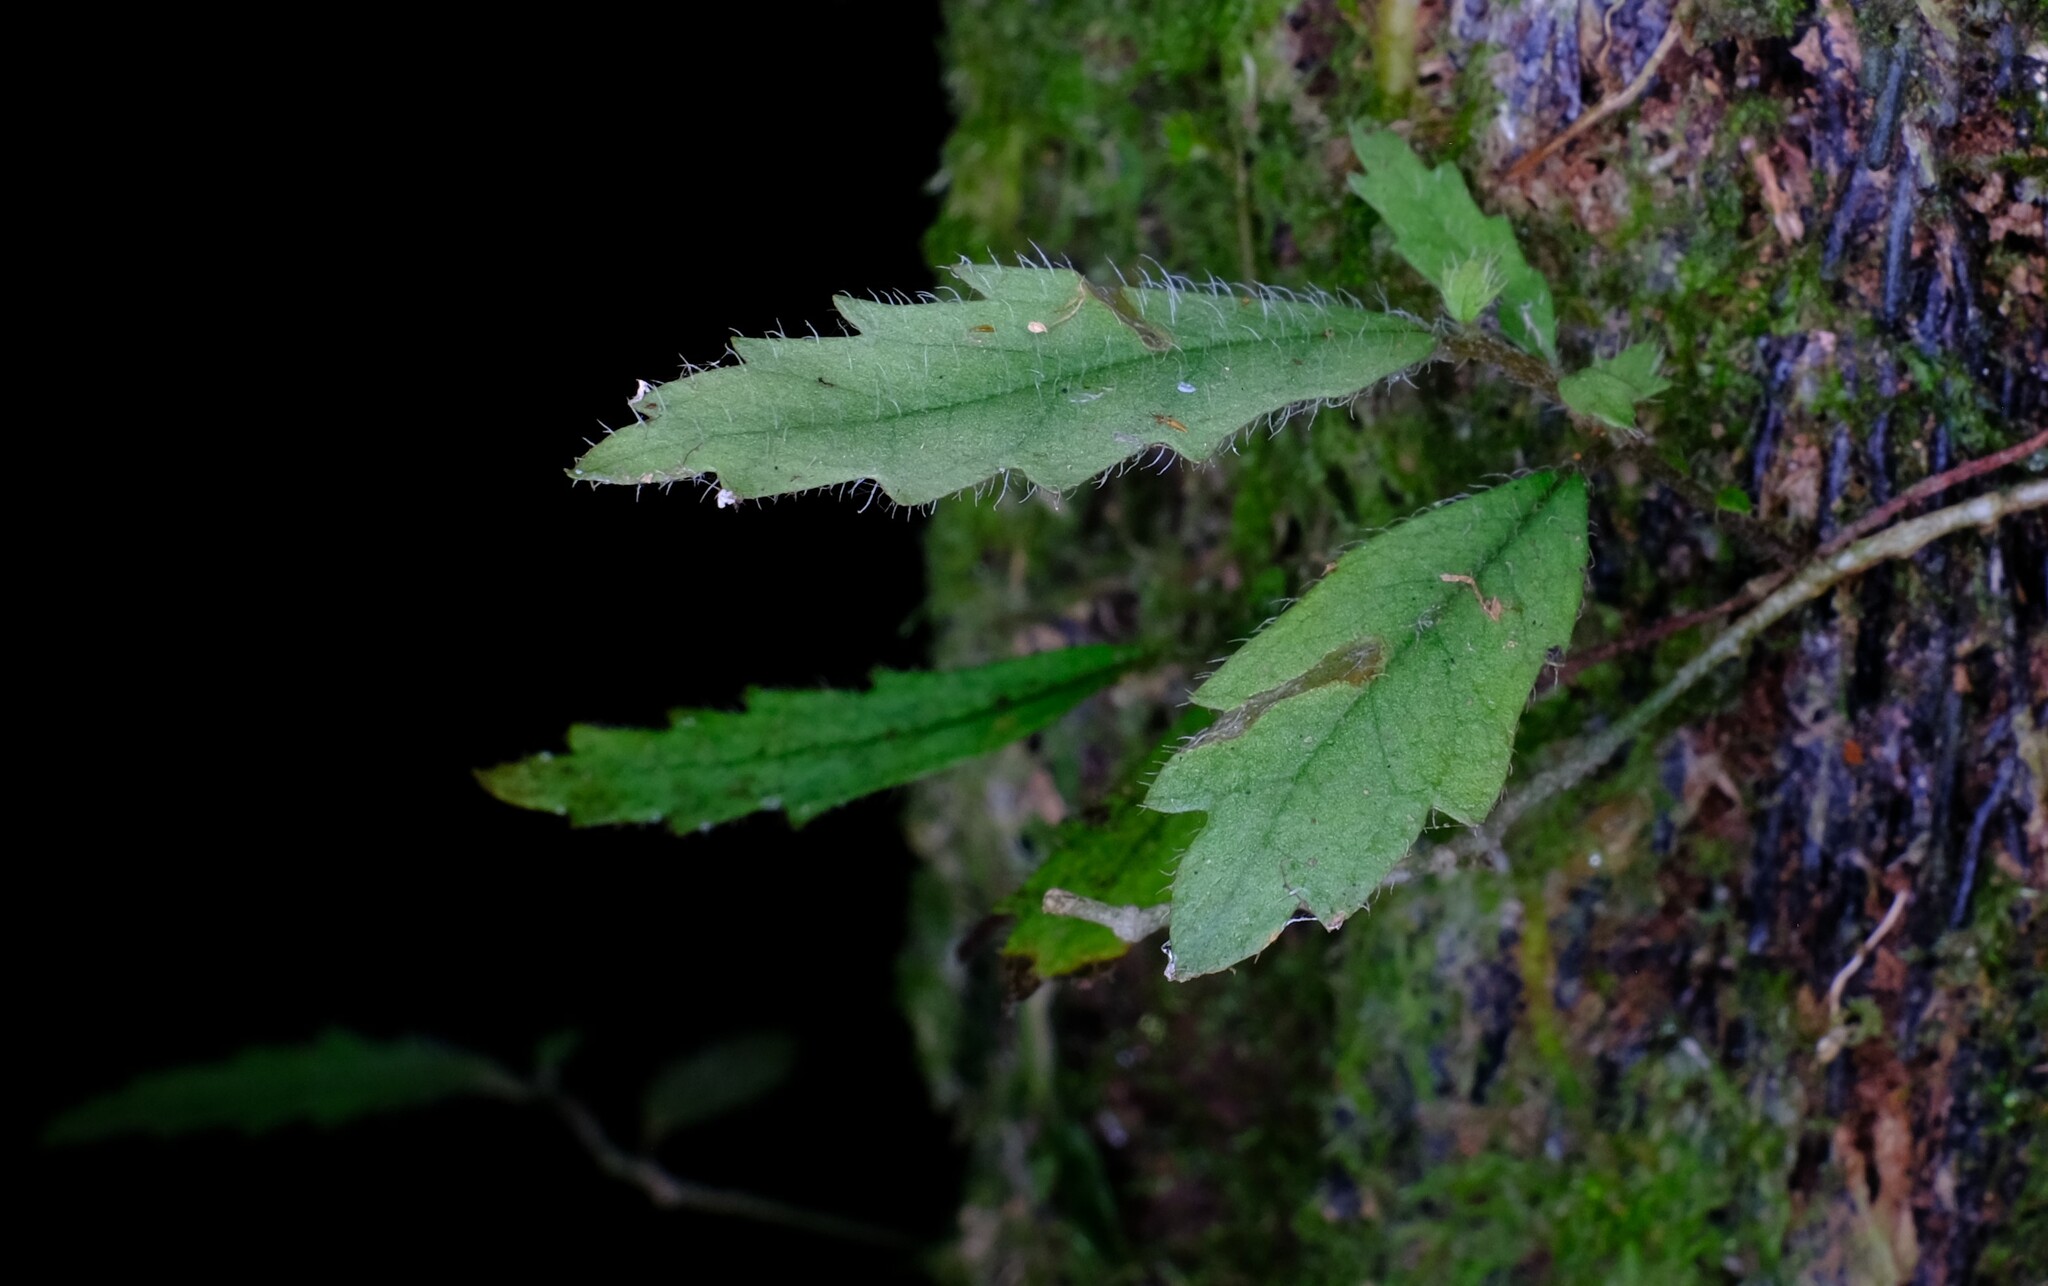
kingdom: Plantae
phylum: Tracheophyta
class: Magnoliopsida
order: Lamiales
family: Gesneriaceae
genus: Fieldia
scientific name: Fieldia australis
